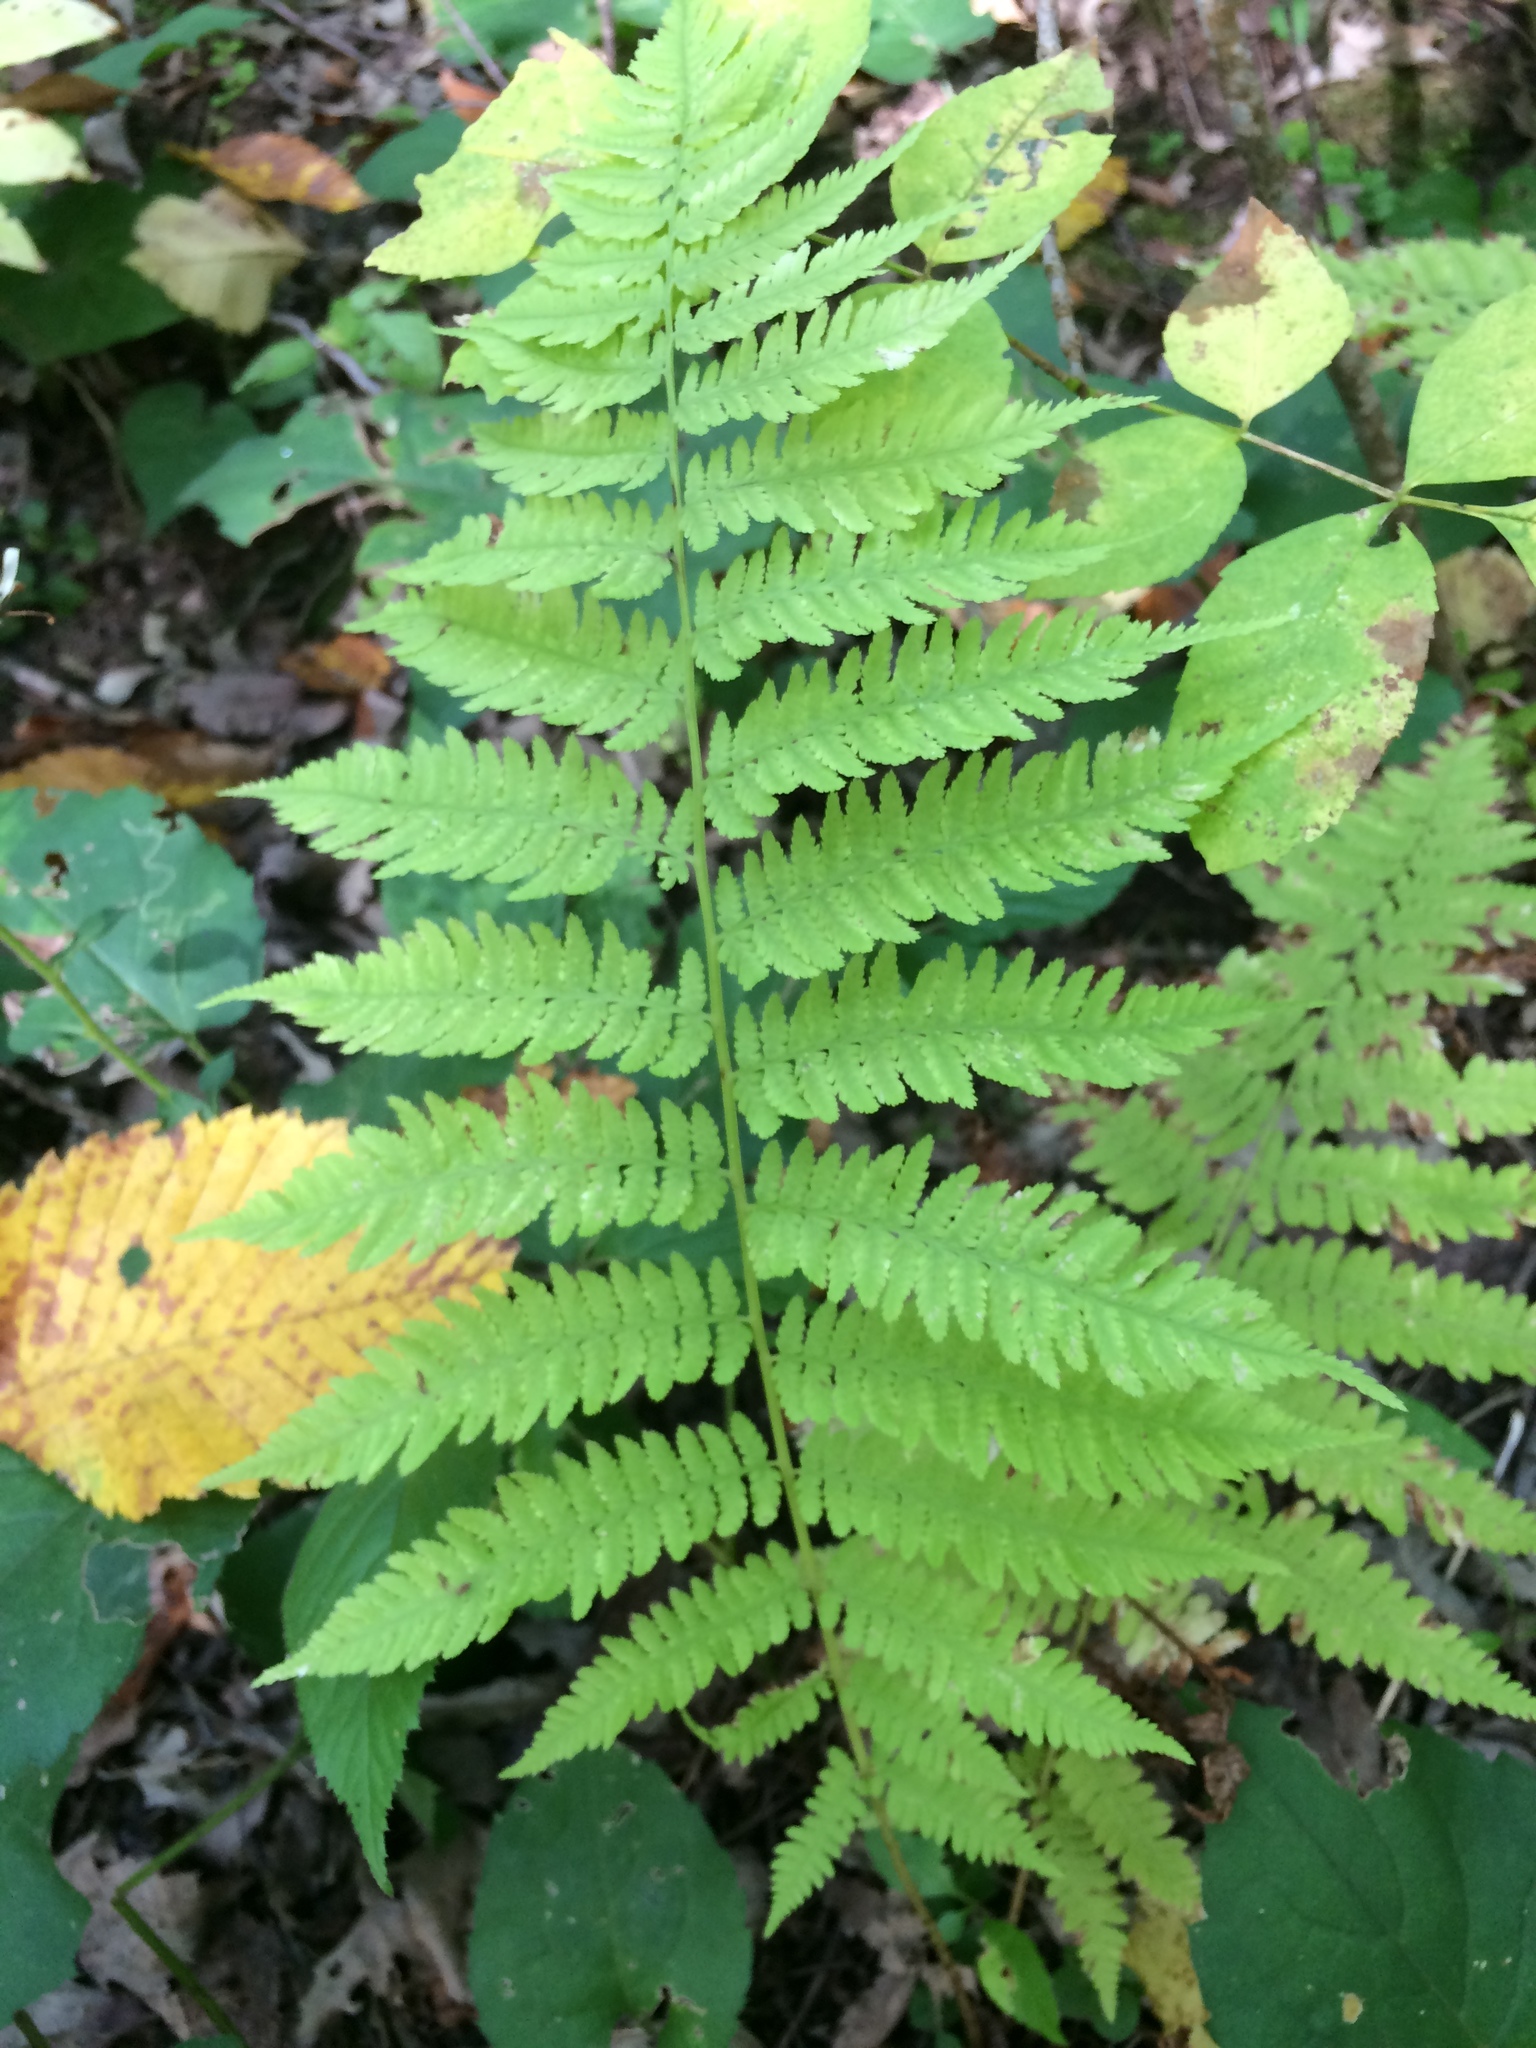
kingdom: Plantae
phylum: Tracheophyta
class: Polypodiopsida
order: Polypodiales
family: Athyriaceae
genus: Athyrium
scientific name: Athyrium angustum
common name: Northern lady fern
